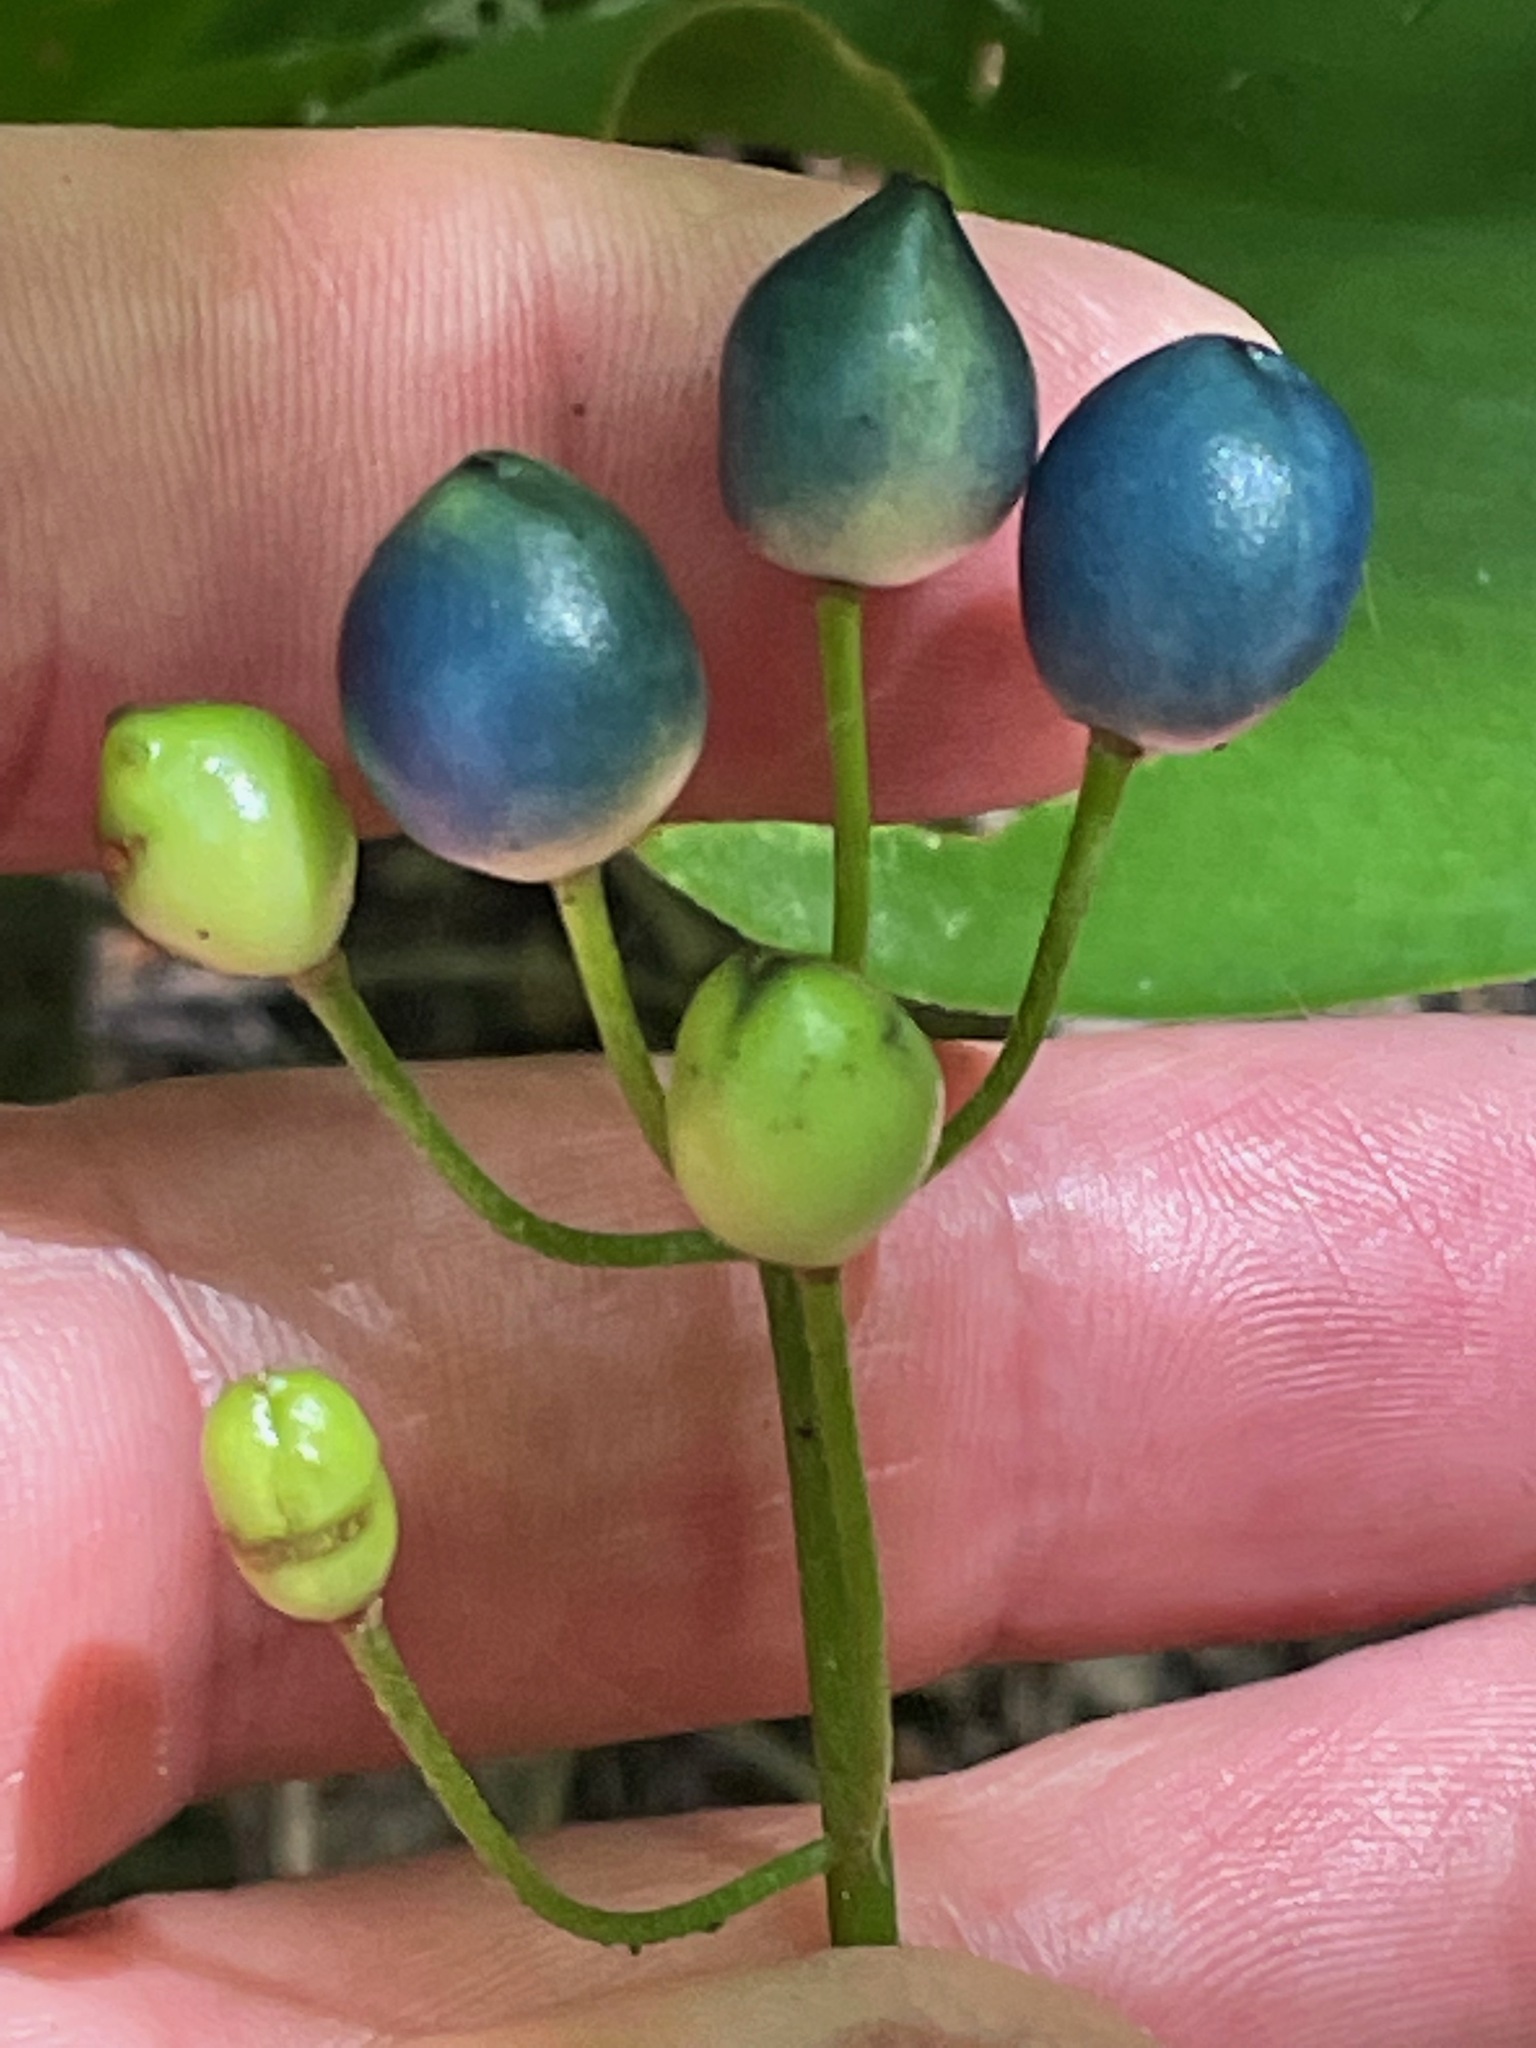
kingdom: Plantae
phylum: Tracheophyta
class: Liliopsida
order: Liliales
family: Liliaceae
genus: Clintonia
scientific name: Clintonia borealis
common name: Yellow clintonia
